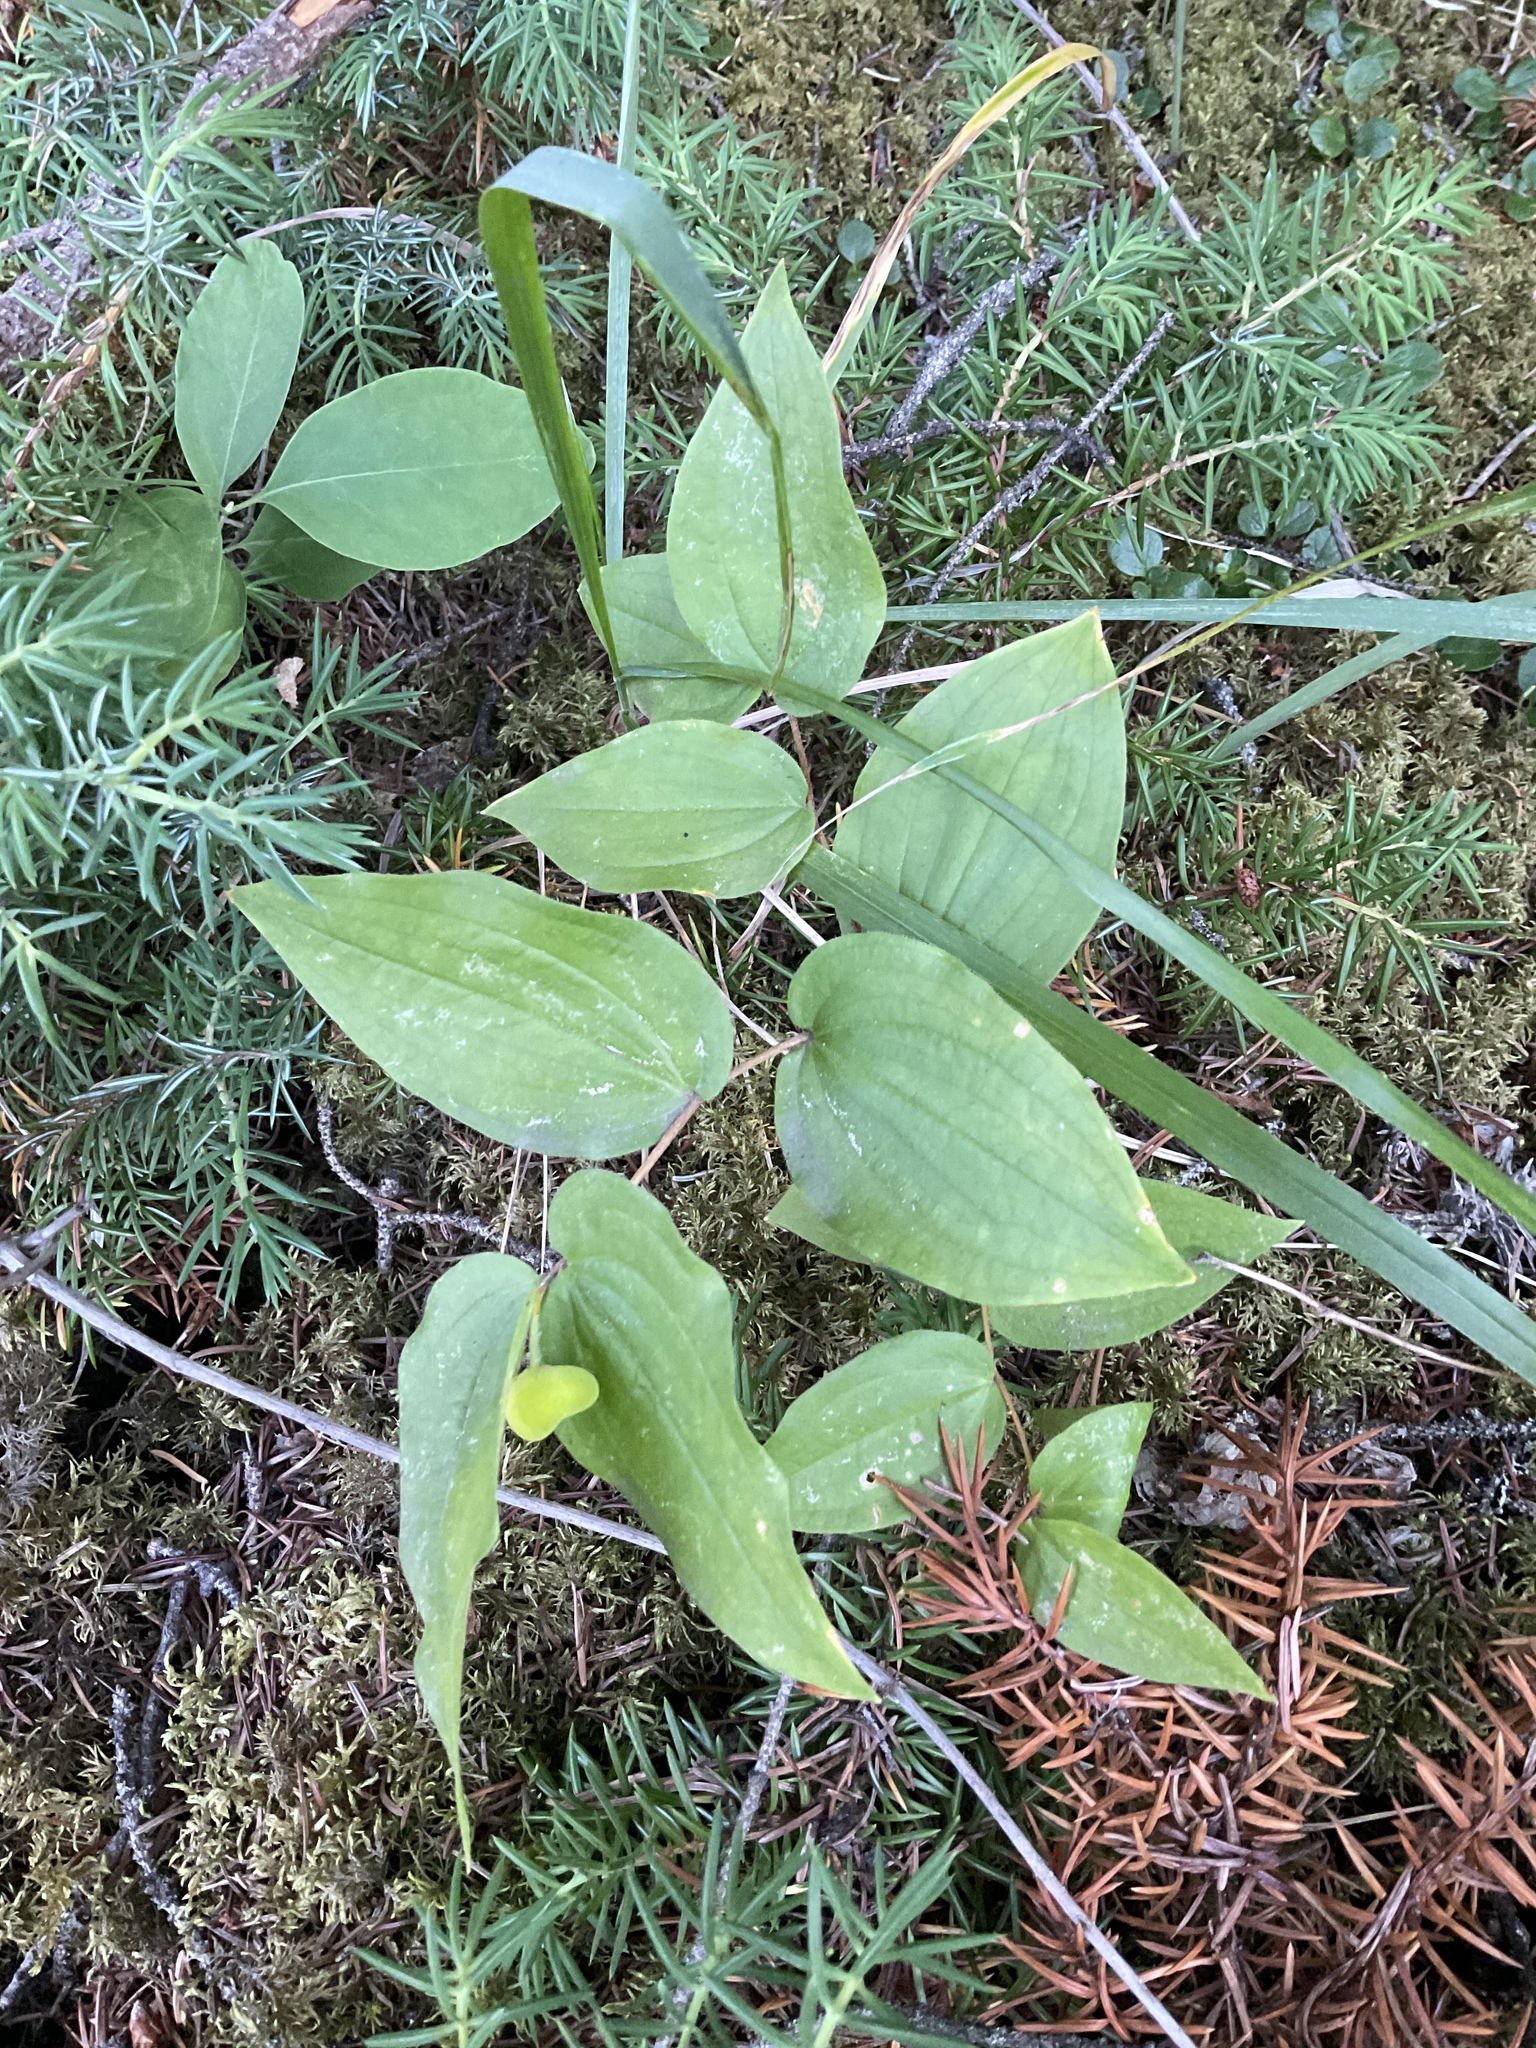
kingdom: Plantae
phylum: Tracheophyta
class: Liliopsida
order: Liliales
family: Liliaceae
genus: Prosartes
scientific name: Prosartes trachycarpa
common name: Rough-fruit fairy-bells
